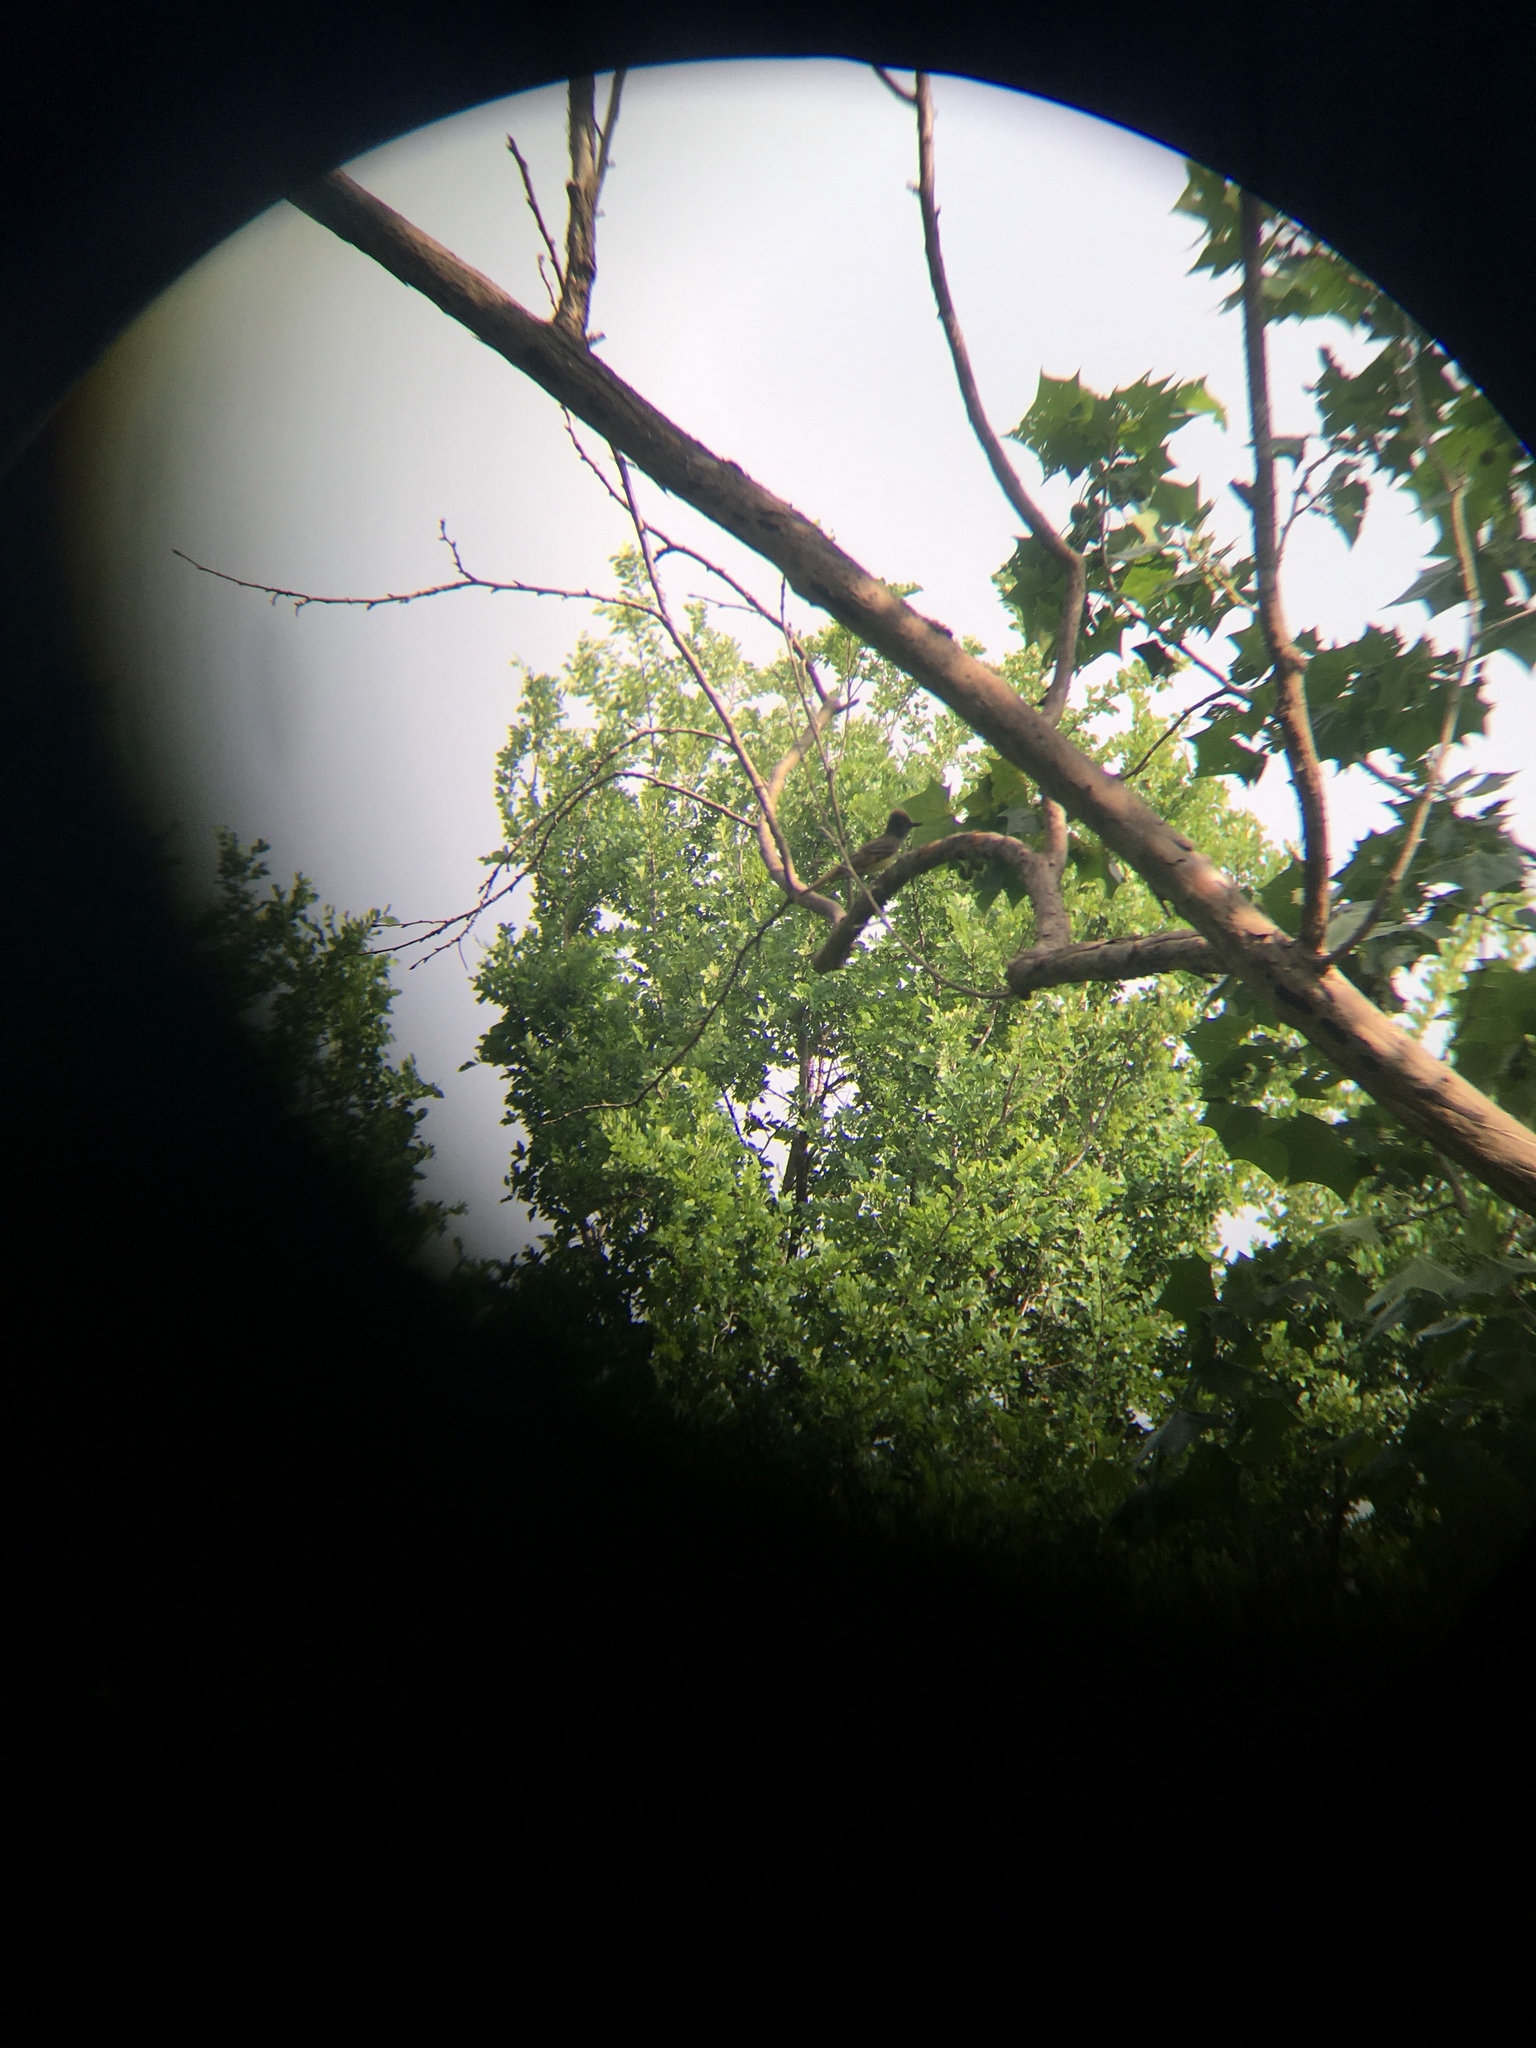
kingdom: Animalia
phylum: Chordata
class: Aves
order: Passeriformes
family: Tyrannidae
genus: Myiarchus
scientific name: Myiarchus crinitus
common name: Great crested flycatcher
